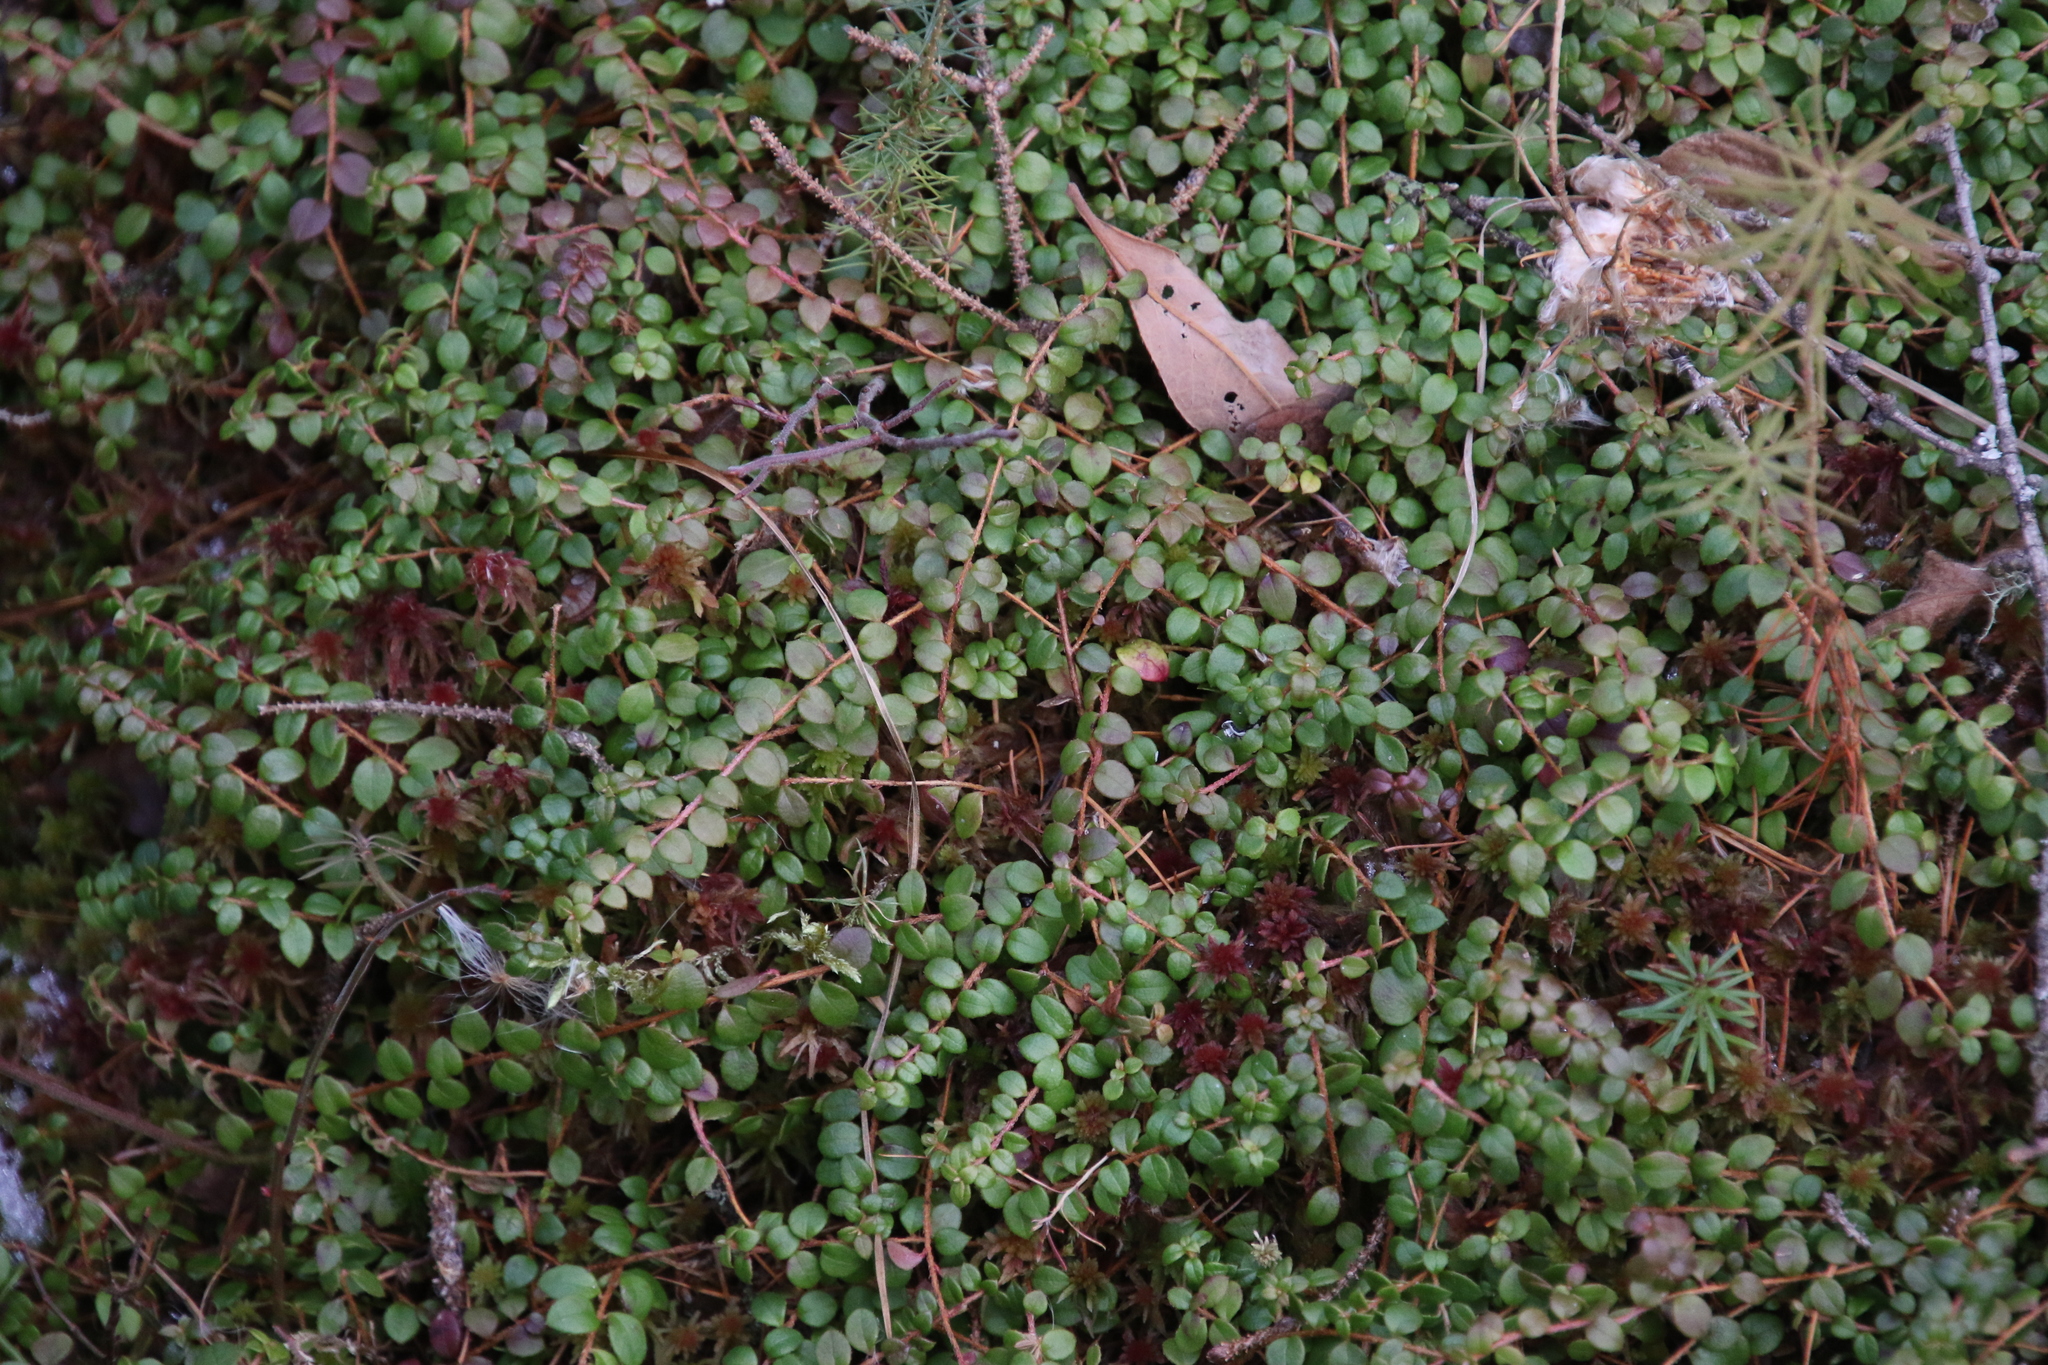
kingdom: Plantae
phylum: Tracheophyta
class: Magnoliopsida
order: Ericales
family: Ericaceae
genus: Gaultheria
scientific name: Gaultheria hispidula
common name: Cancer wintergreen
